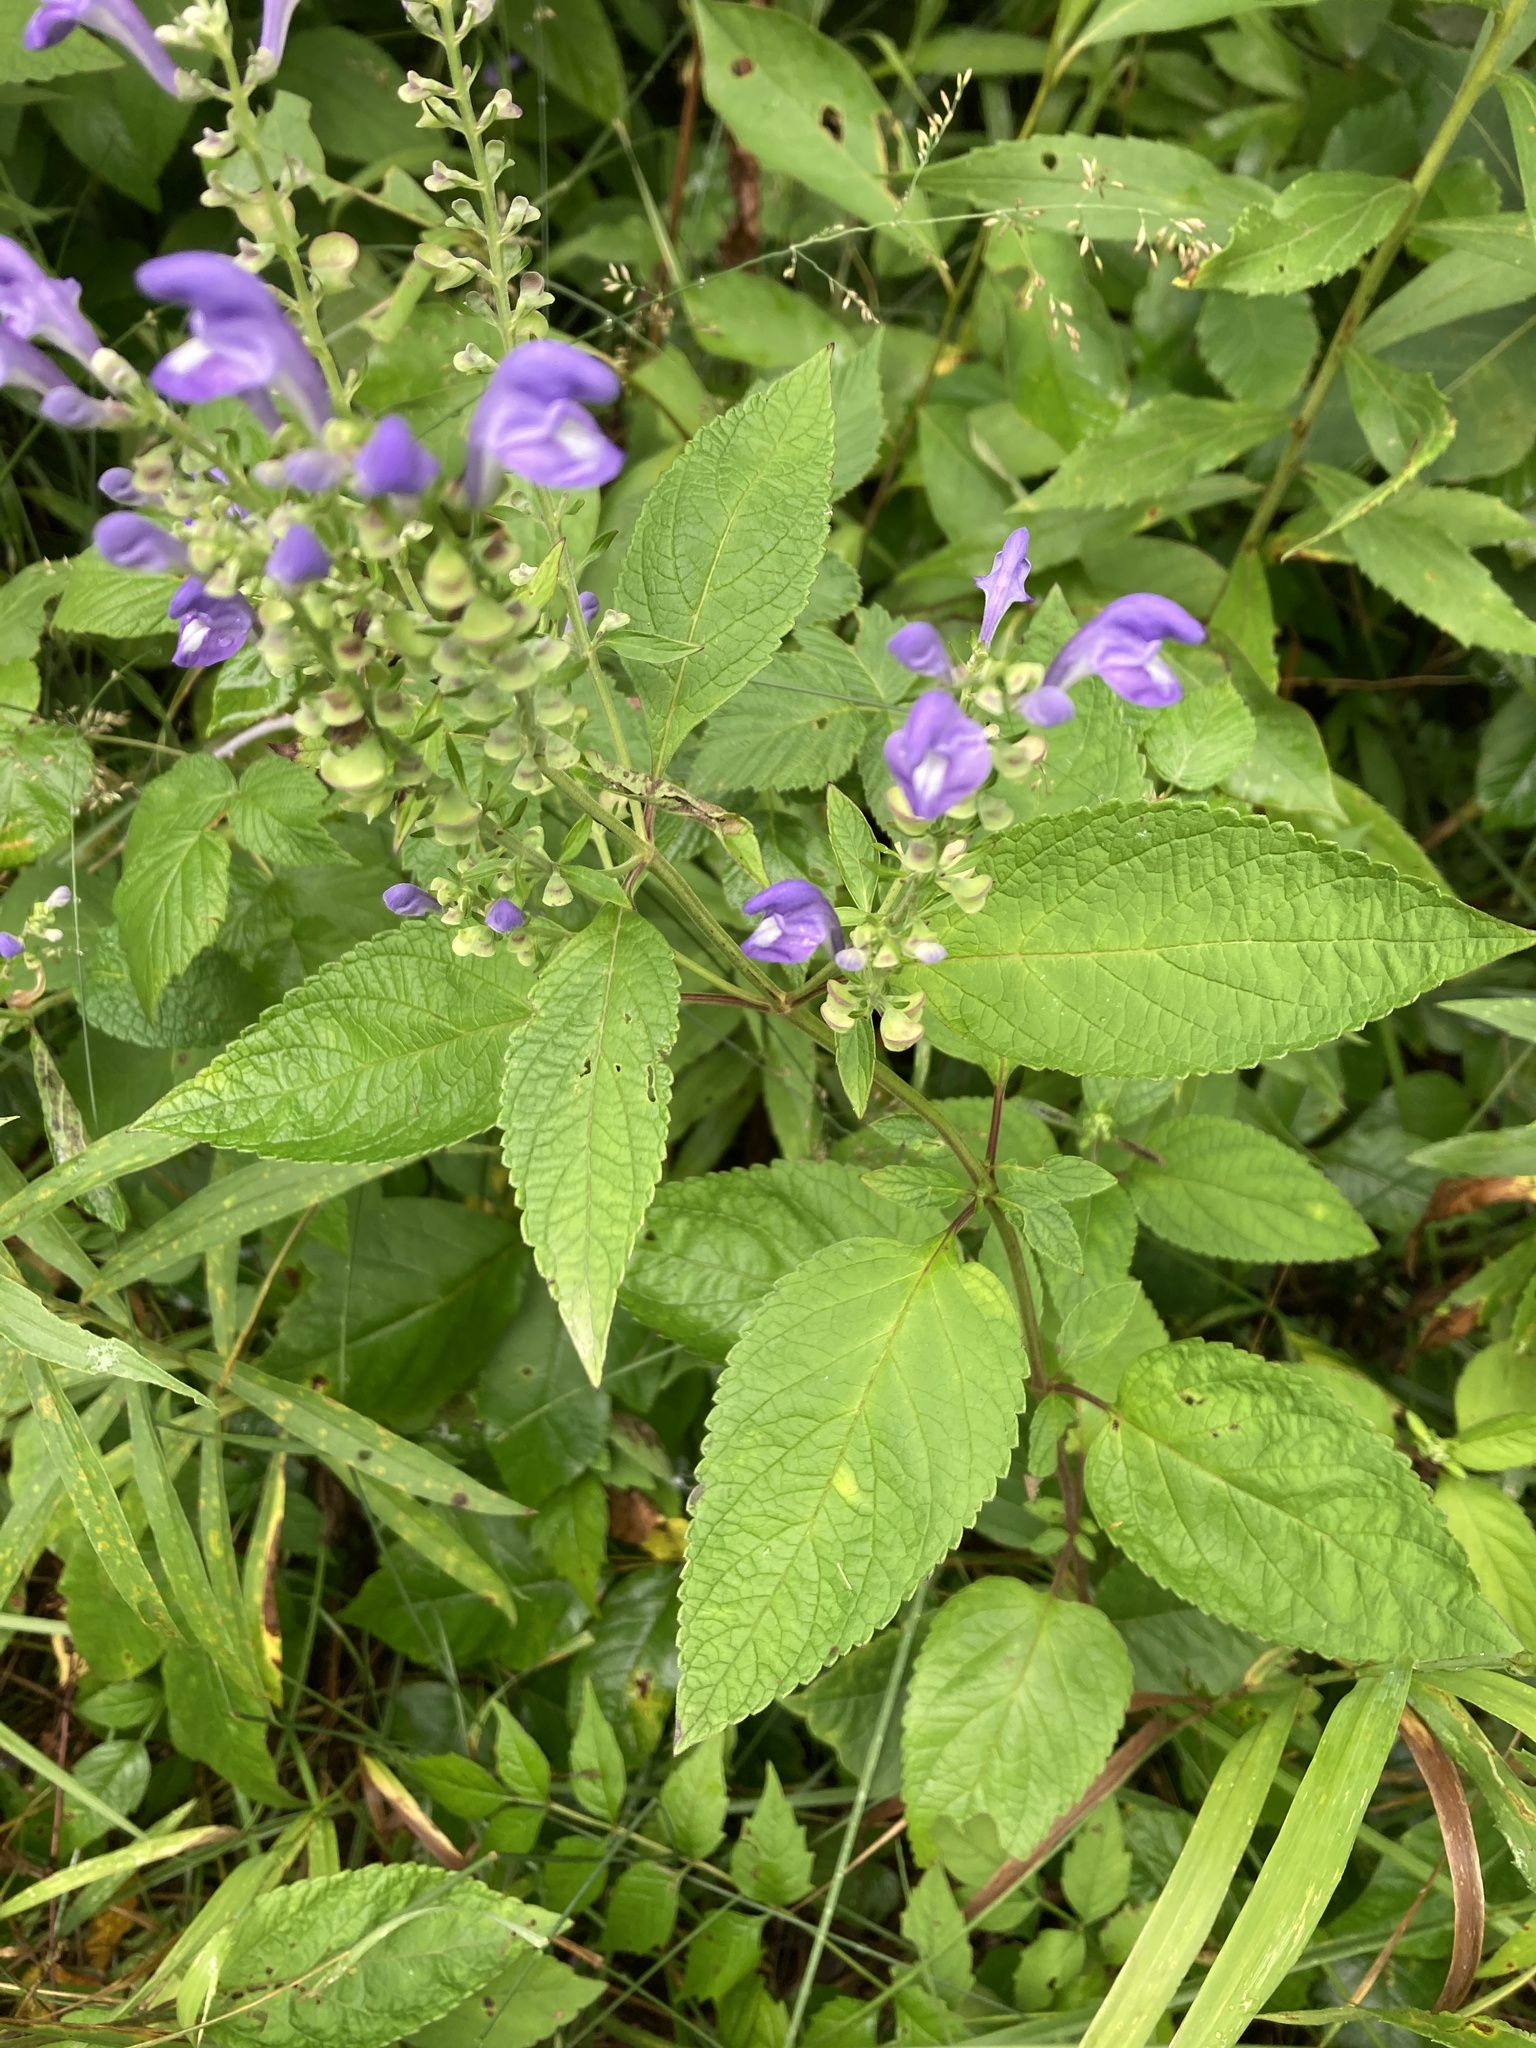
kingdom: Plantae
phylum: Tracheophyta
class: Magnoliopsida
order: Lamiales
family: Lamiaceae
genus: Scutellaria
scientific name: Scutellaria incana
